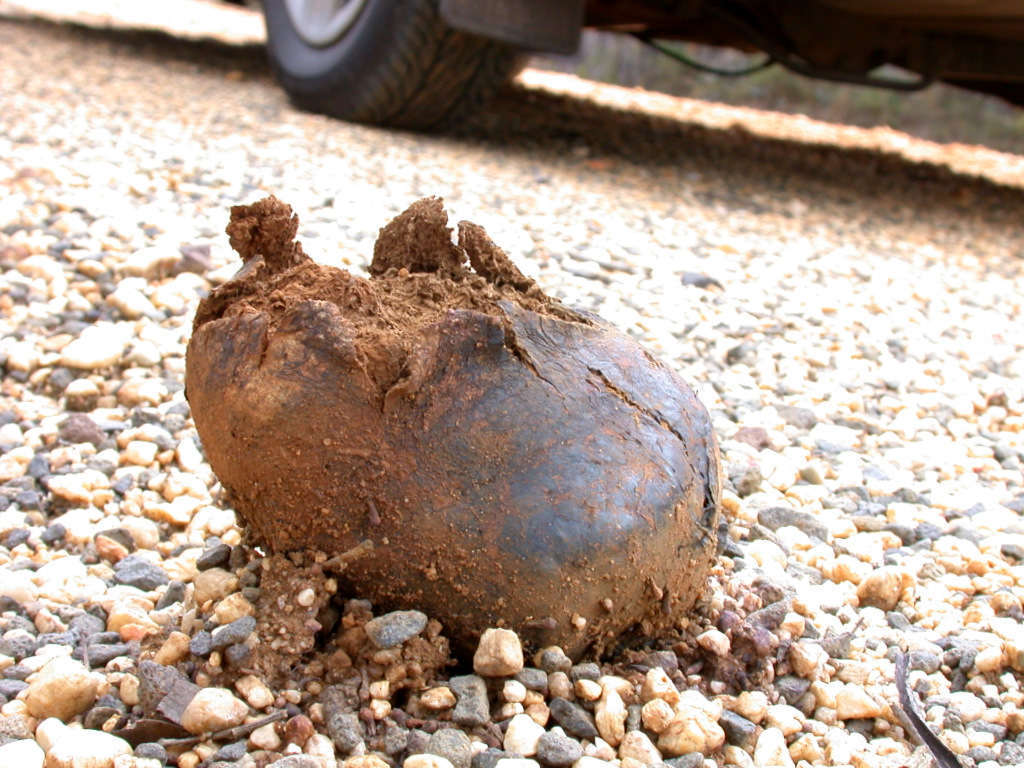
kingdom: Fungi
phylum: Basidiomycota
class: Agaricomycetes
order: Boletales
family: Sclerodermataceae
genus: Pisolithus
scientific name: Pisolithus arhizus
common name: Dyeball
